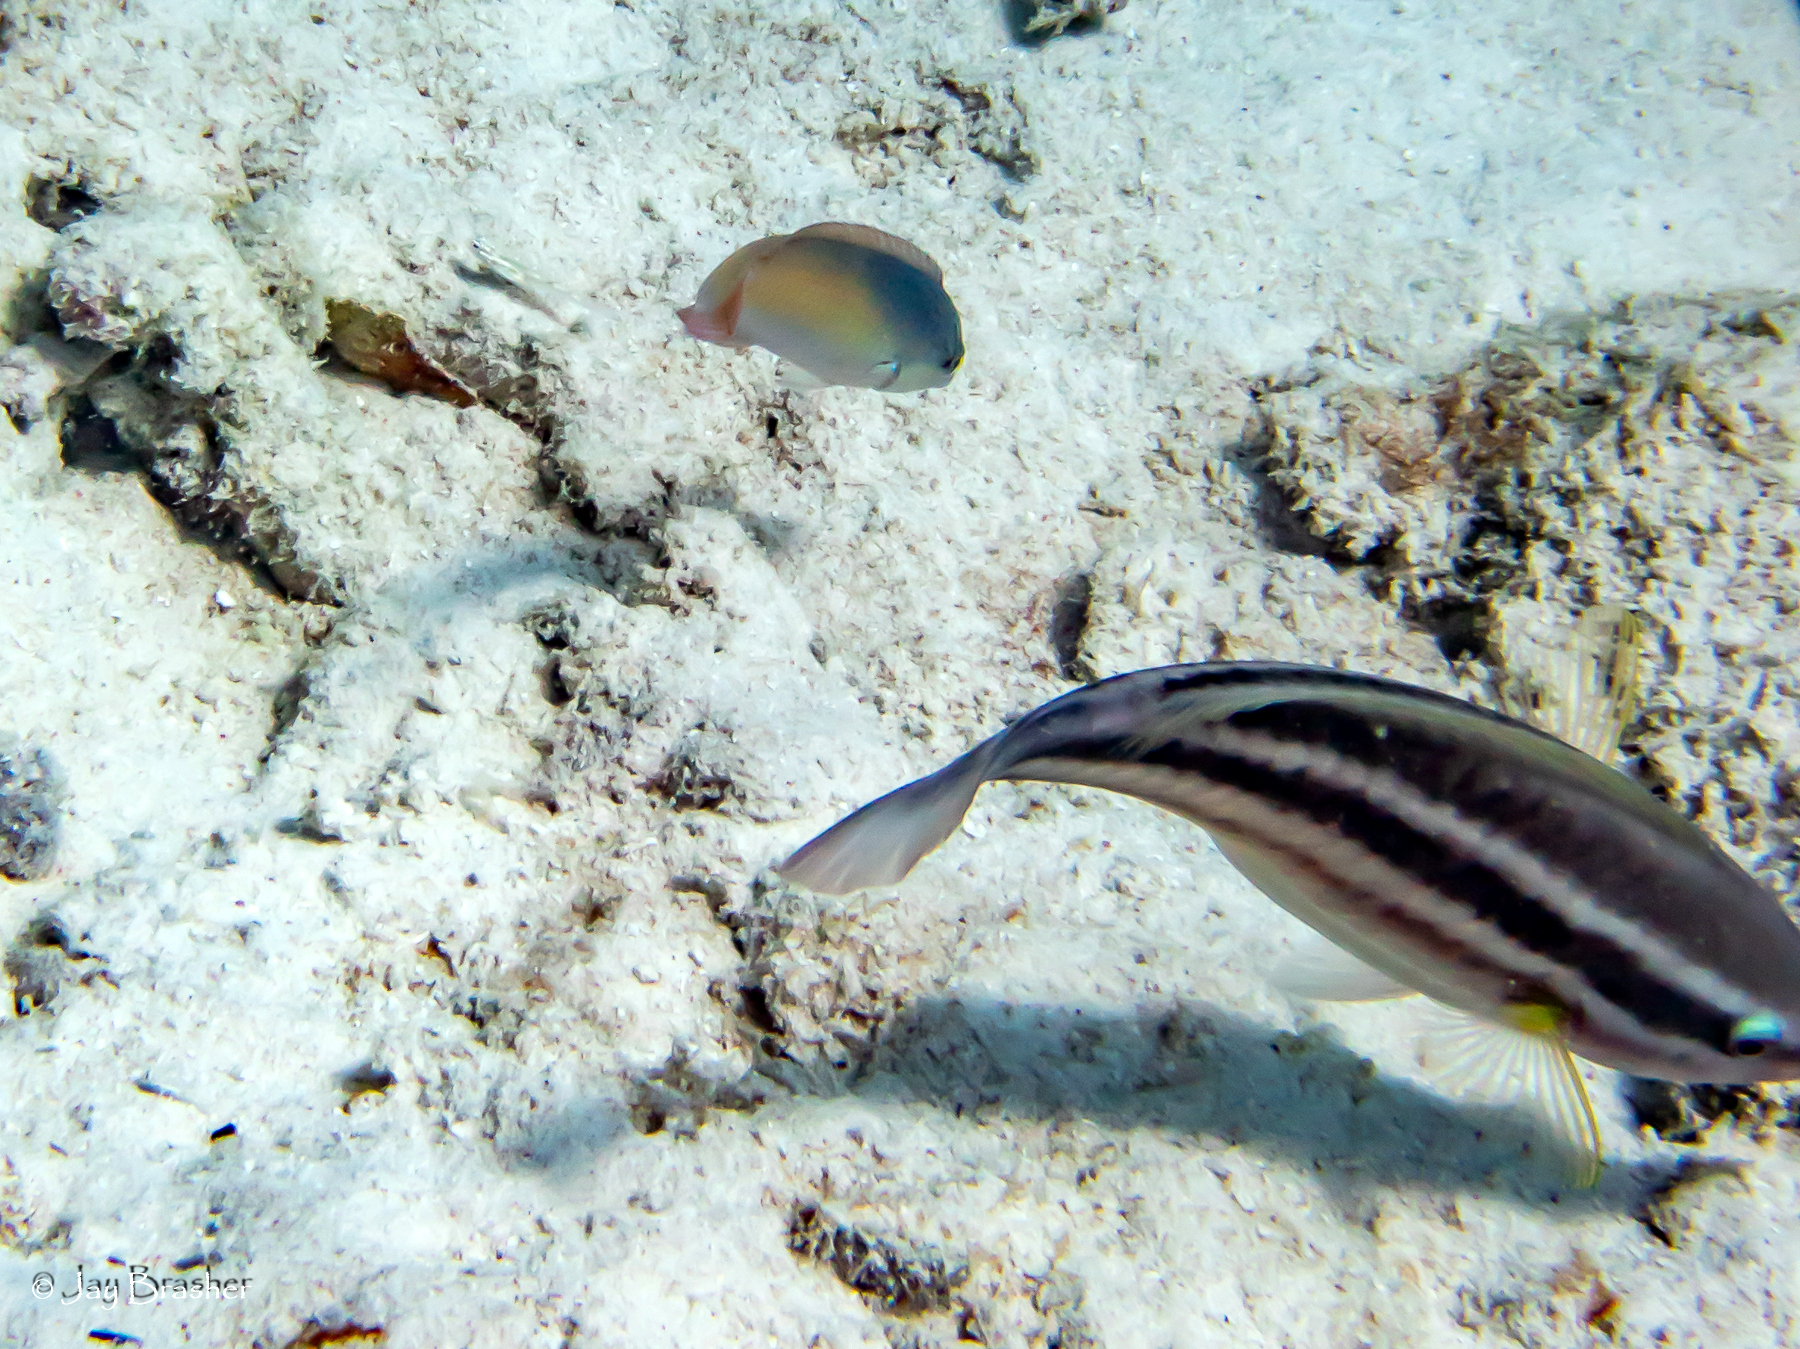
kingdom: Animalia
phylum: Chordata
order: Perciformes
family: Labridae
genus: Halichoeres
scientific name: Halichoeres garnoti
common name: Yellowhead wrasse
